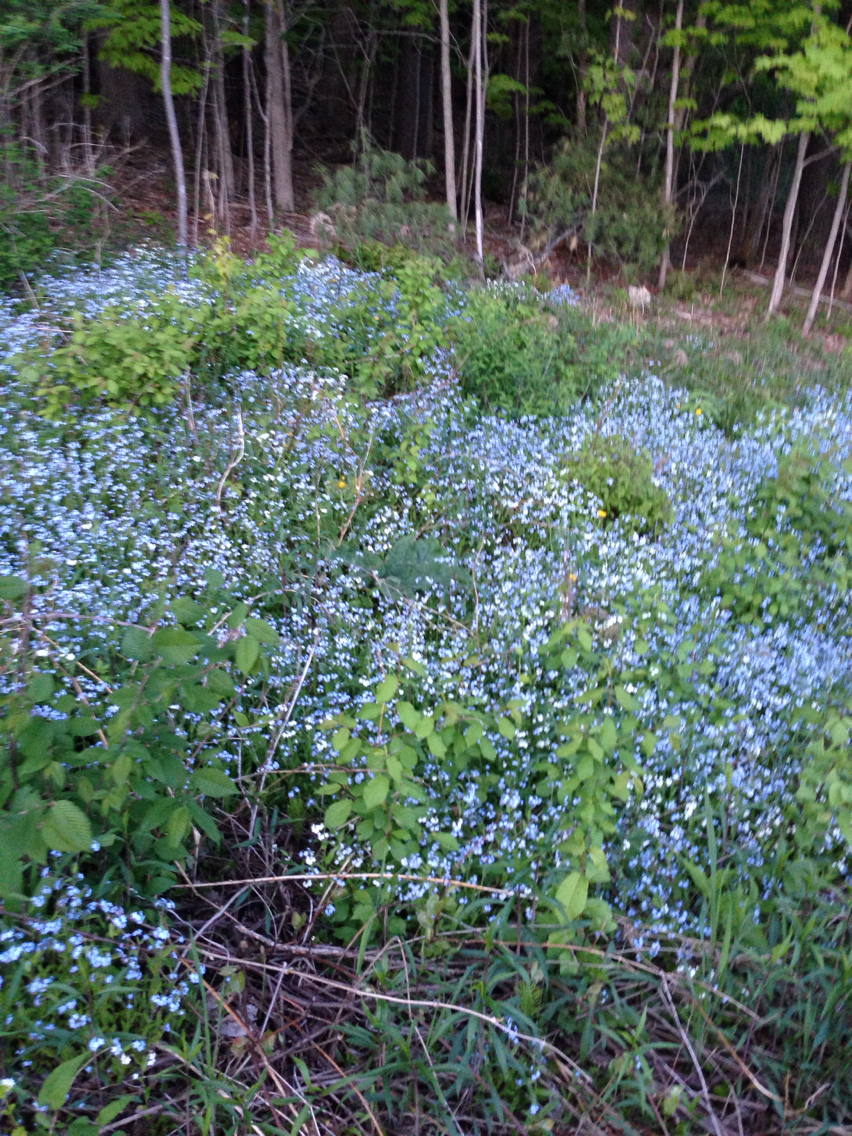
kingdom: Plantae
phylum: Tracheophyta
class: Magnoliopsida
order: Boraginales
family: Boraginaceae
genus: Myosotis
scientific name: Myosotis sylvatica
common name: Wood forget-me-not
